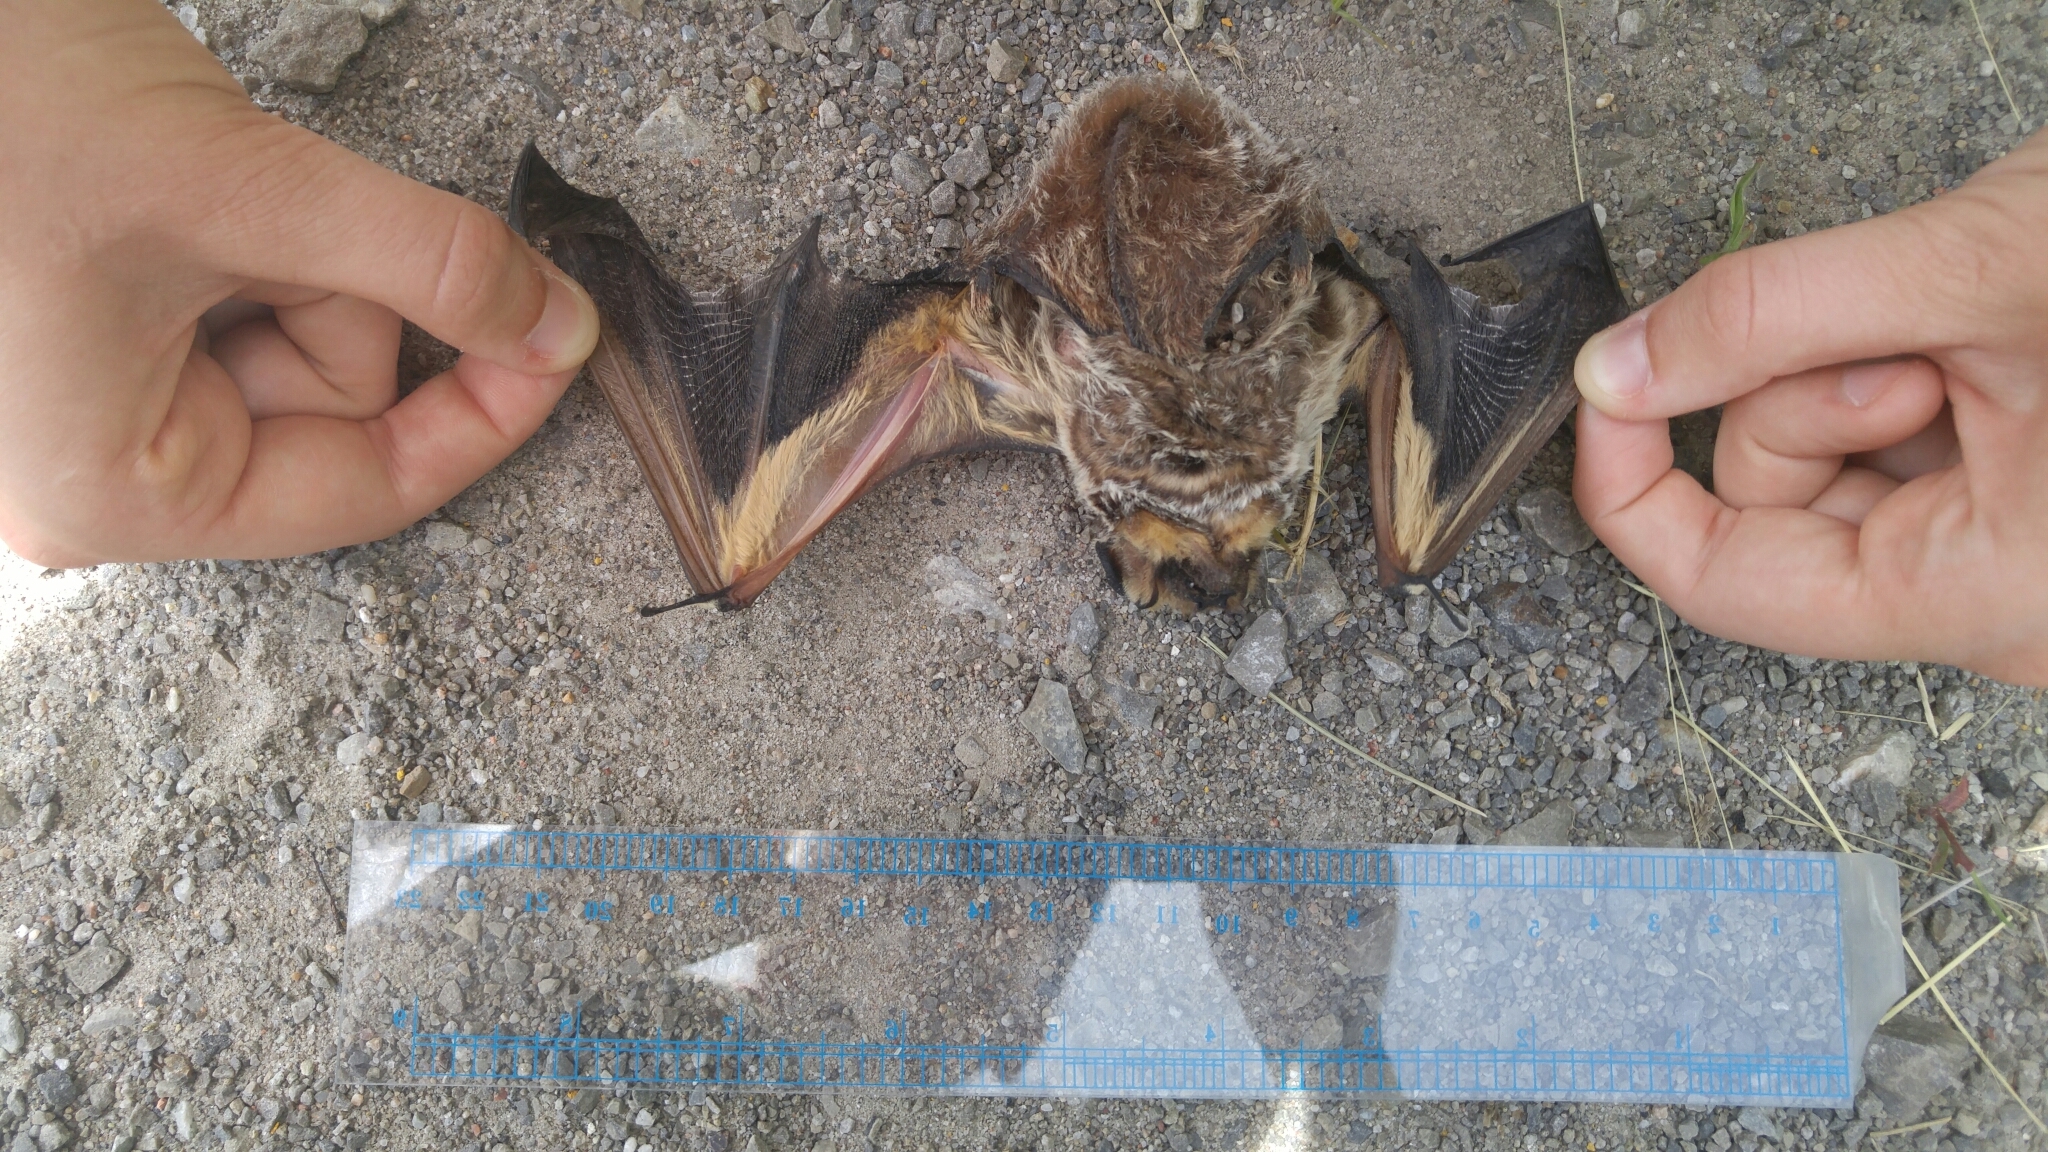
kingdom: Animalia
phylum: Chordata
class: Mammalia
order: Chiroptera
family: Vespertilionidae
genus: Aeorestes
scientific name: Aeorestes cinereus
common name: North american hoary bat
